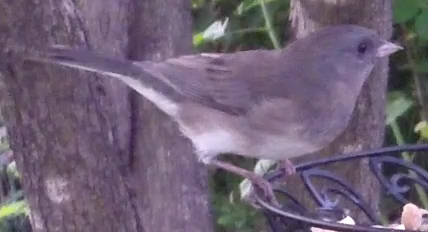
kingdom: Animalia
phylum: Chordata
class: Aves
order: Passeriformes
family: Passerellidae
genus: Junco
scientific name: Junco hyemalis
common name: Dark-eyed junco
